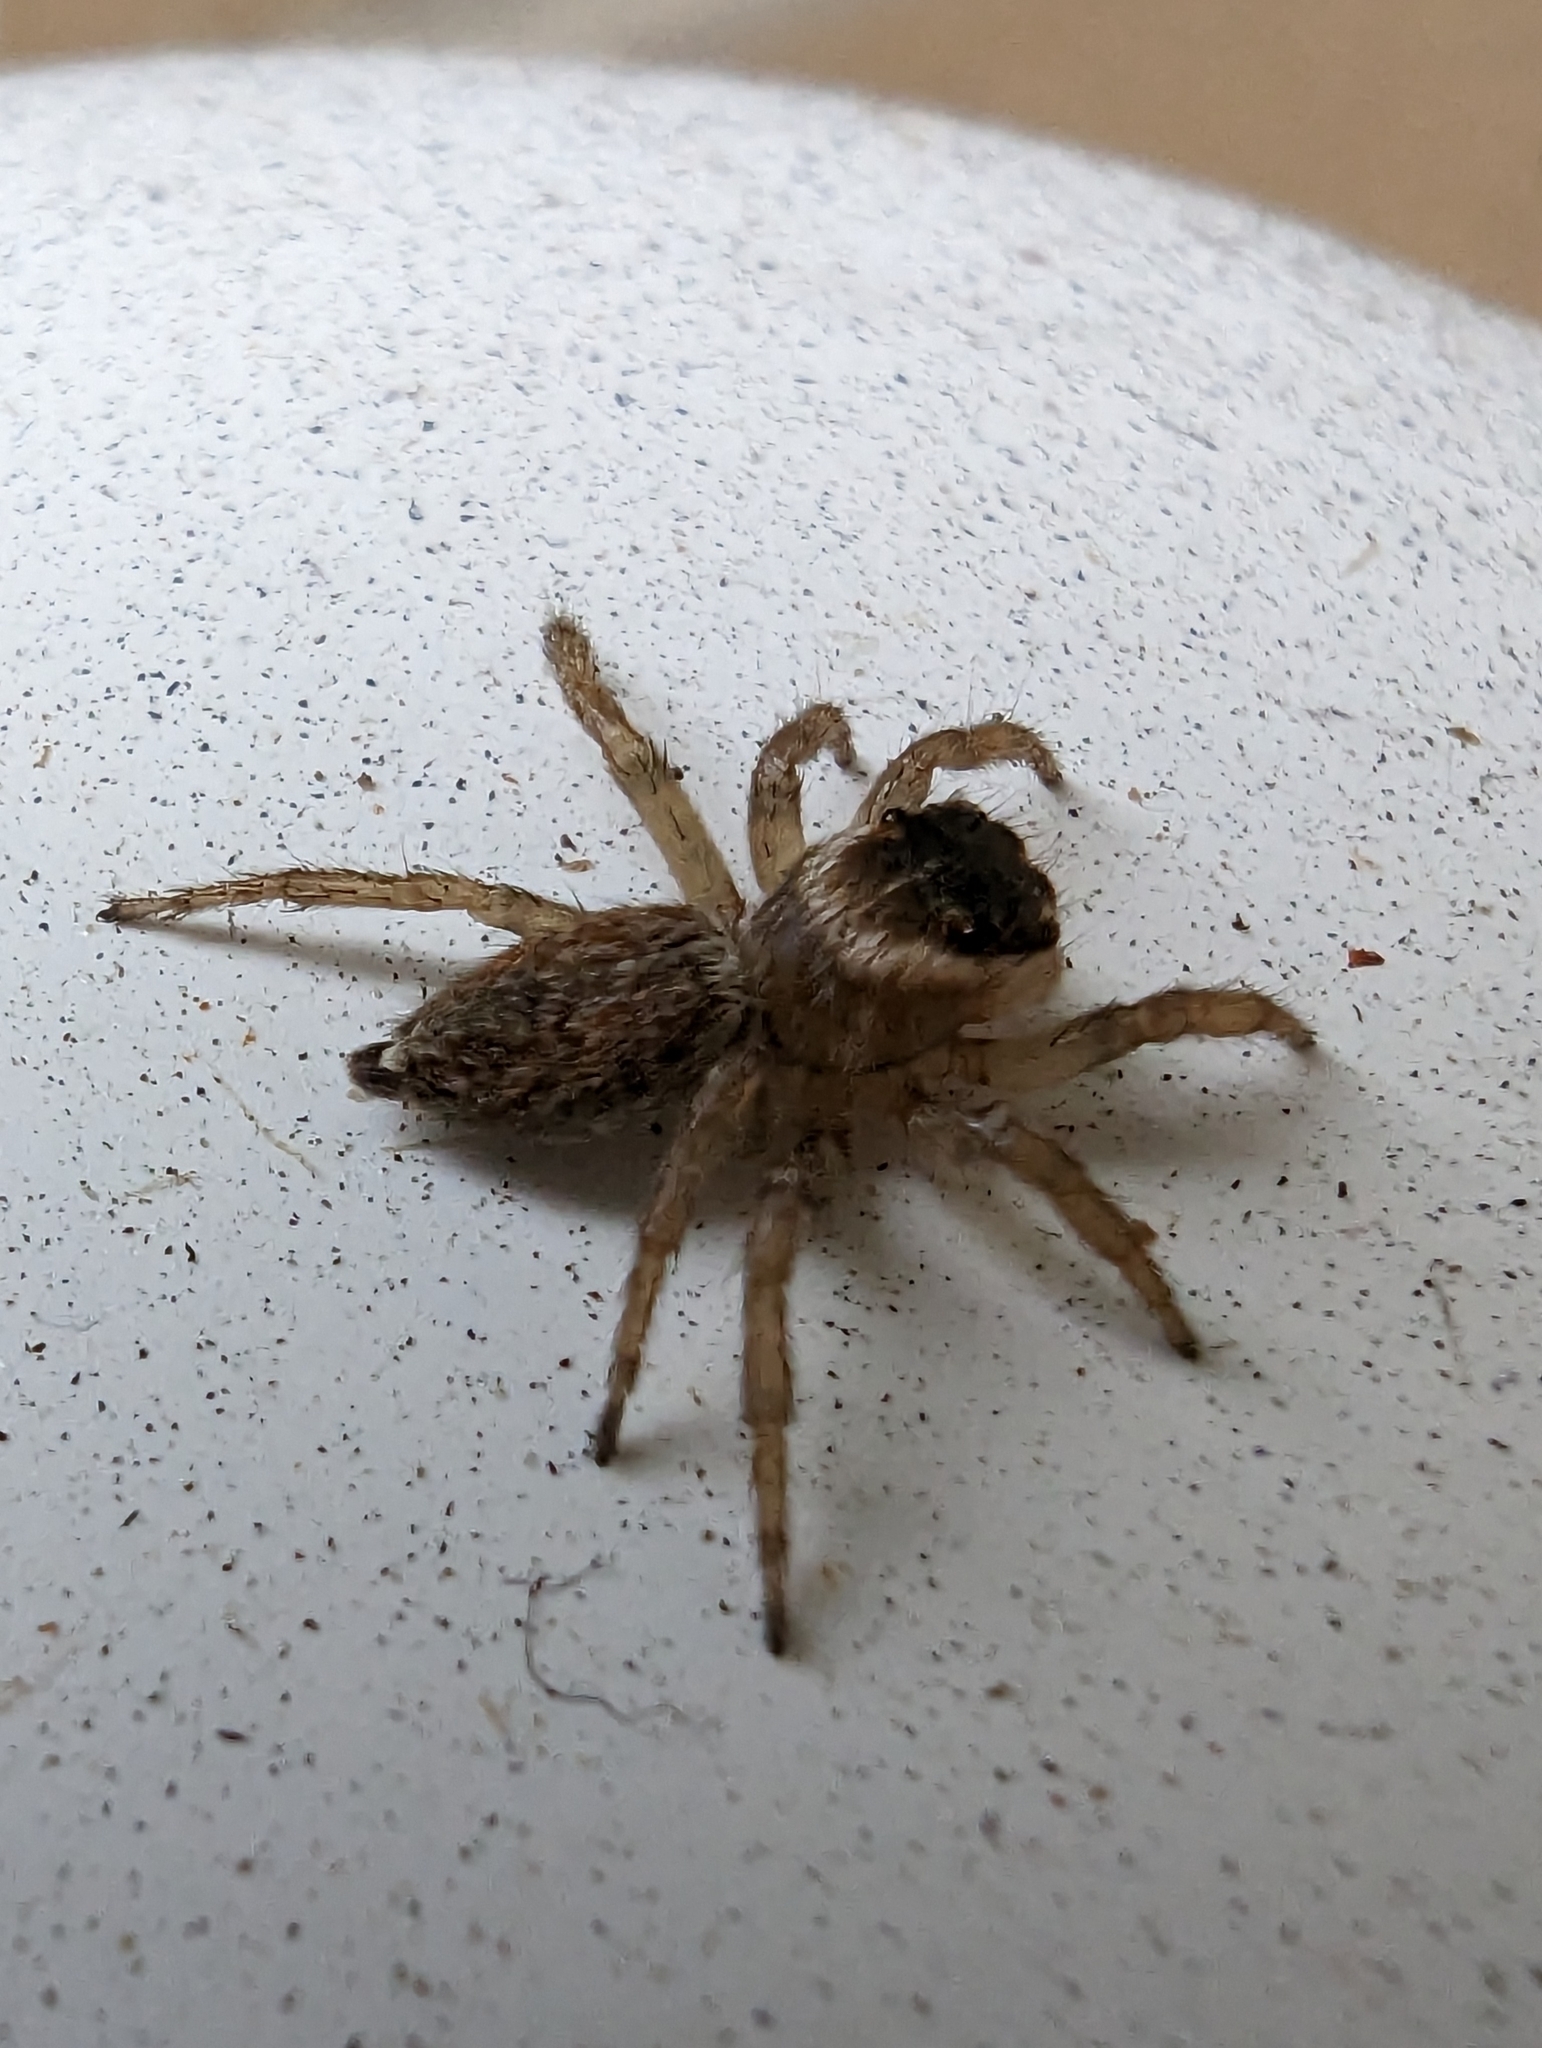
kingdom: Animalia
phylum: Arthropoda
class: Arachnida
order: Araneae
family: Salticidae
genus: Maratus
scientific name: Maratus griseus
